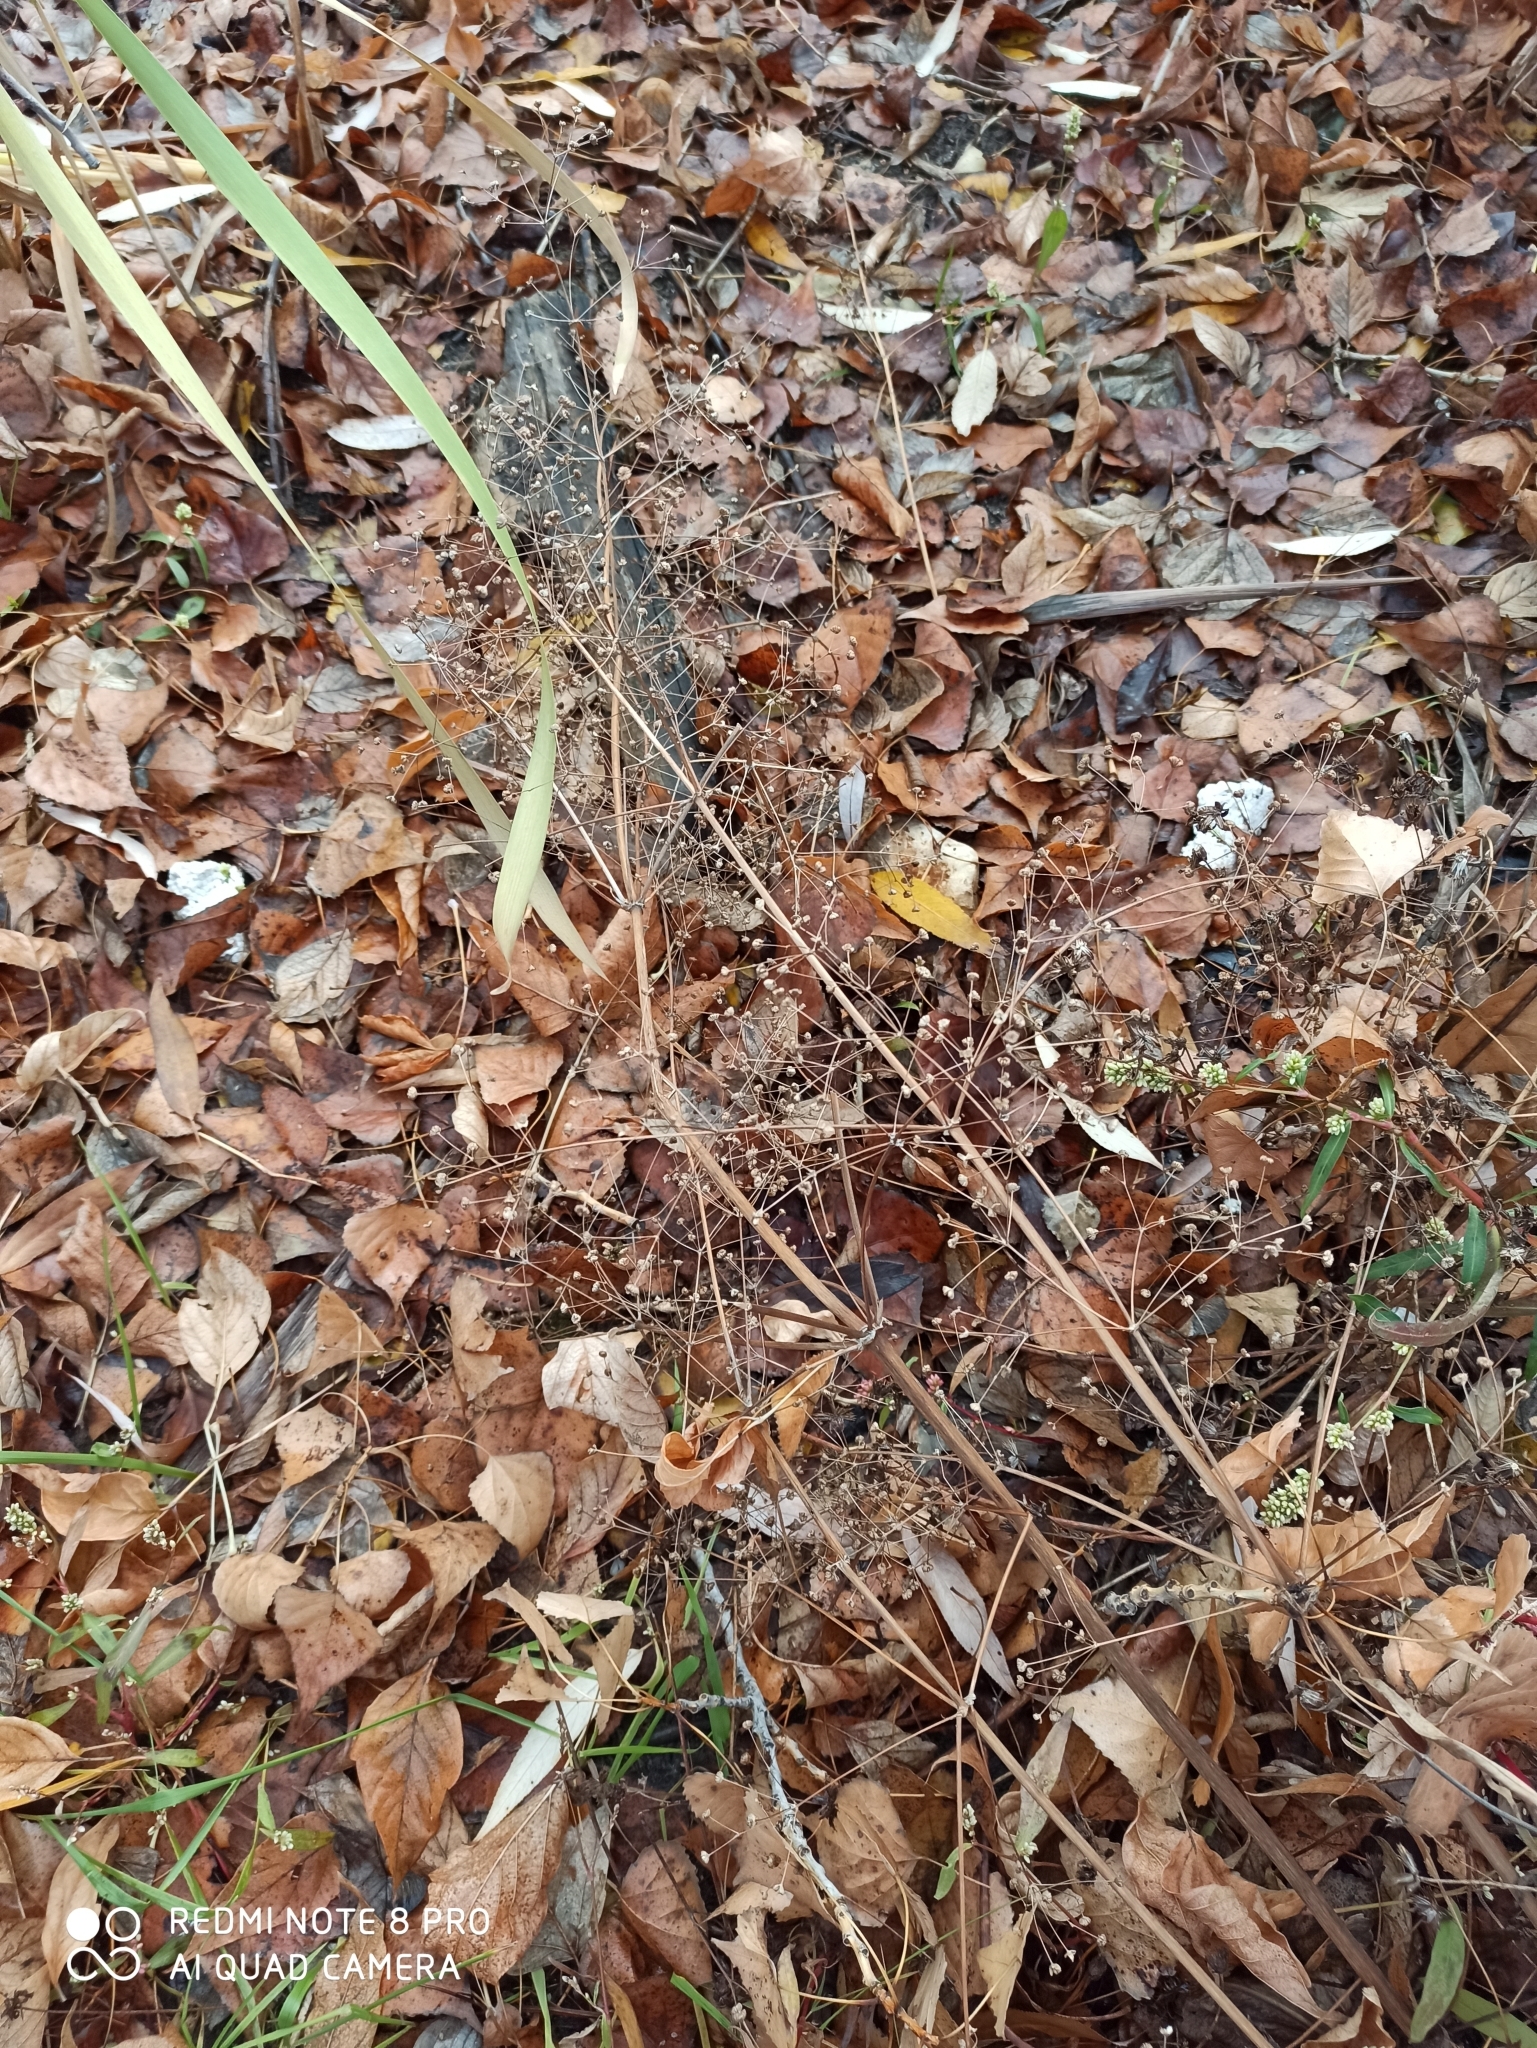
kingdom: Plantae
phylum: Tracheophyta
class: Liliopsida
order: Alismatales
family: Alismataceae
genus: Alisma
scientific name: Alisma plantago-aquatica
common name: Water-plantain
